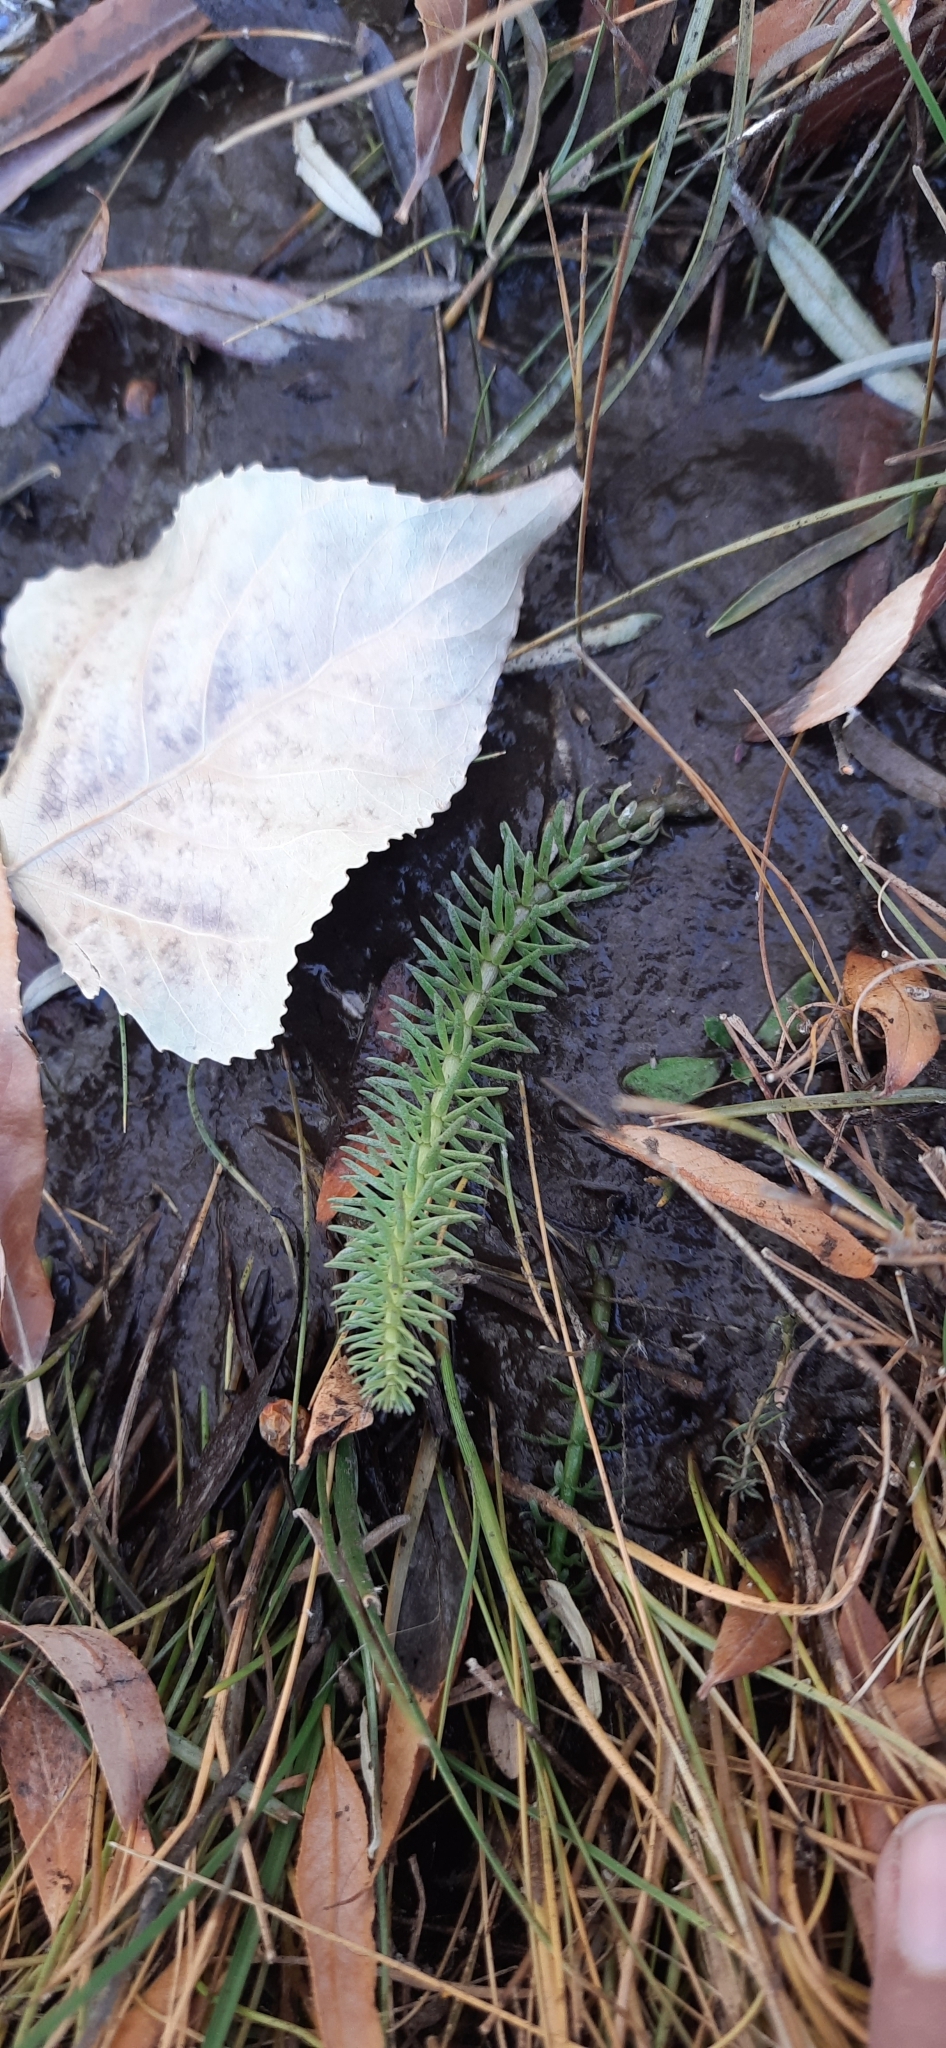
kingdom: Plantae
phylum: Tracheophyta
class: Magnoliopsida
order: Lamiales
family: Plantaginaceae
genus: Hippuris
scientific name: Hippuris vulgaris
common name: Mare's-tail
